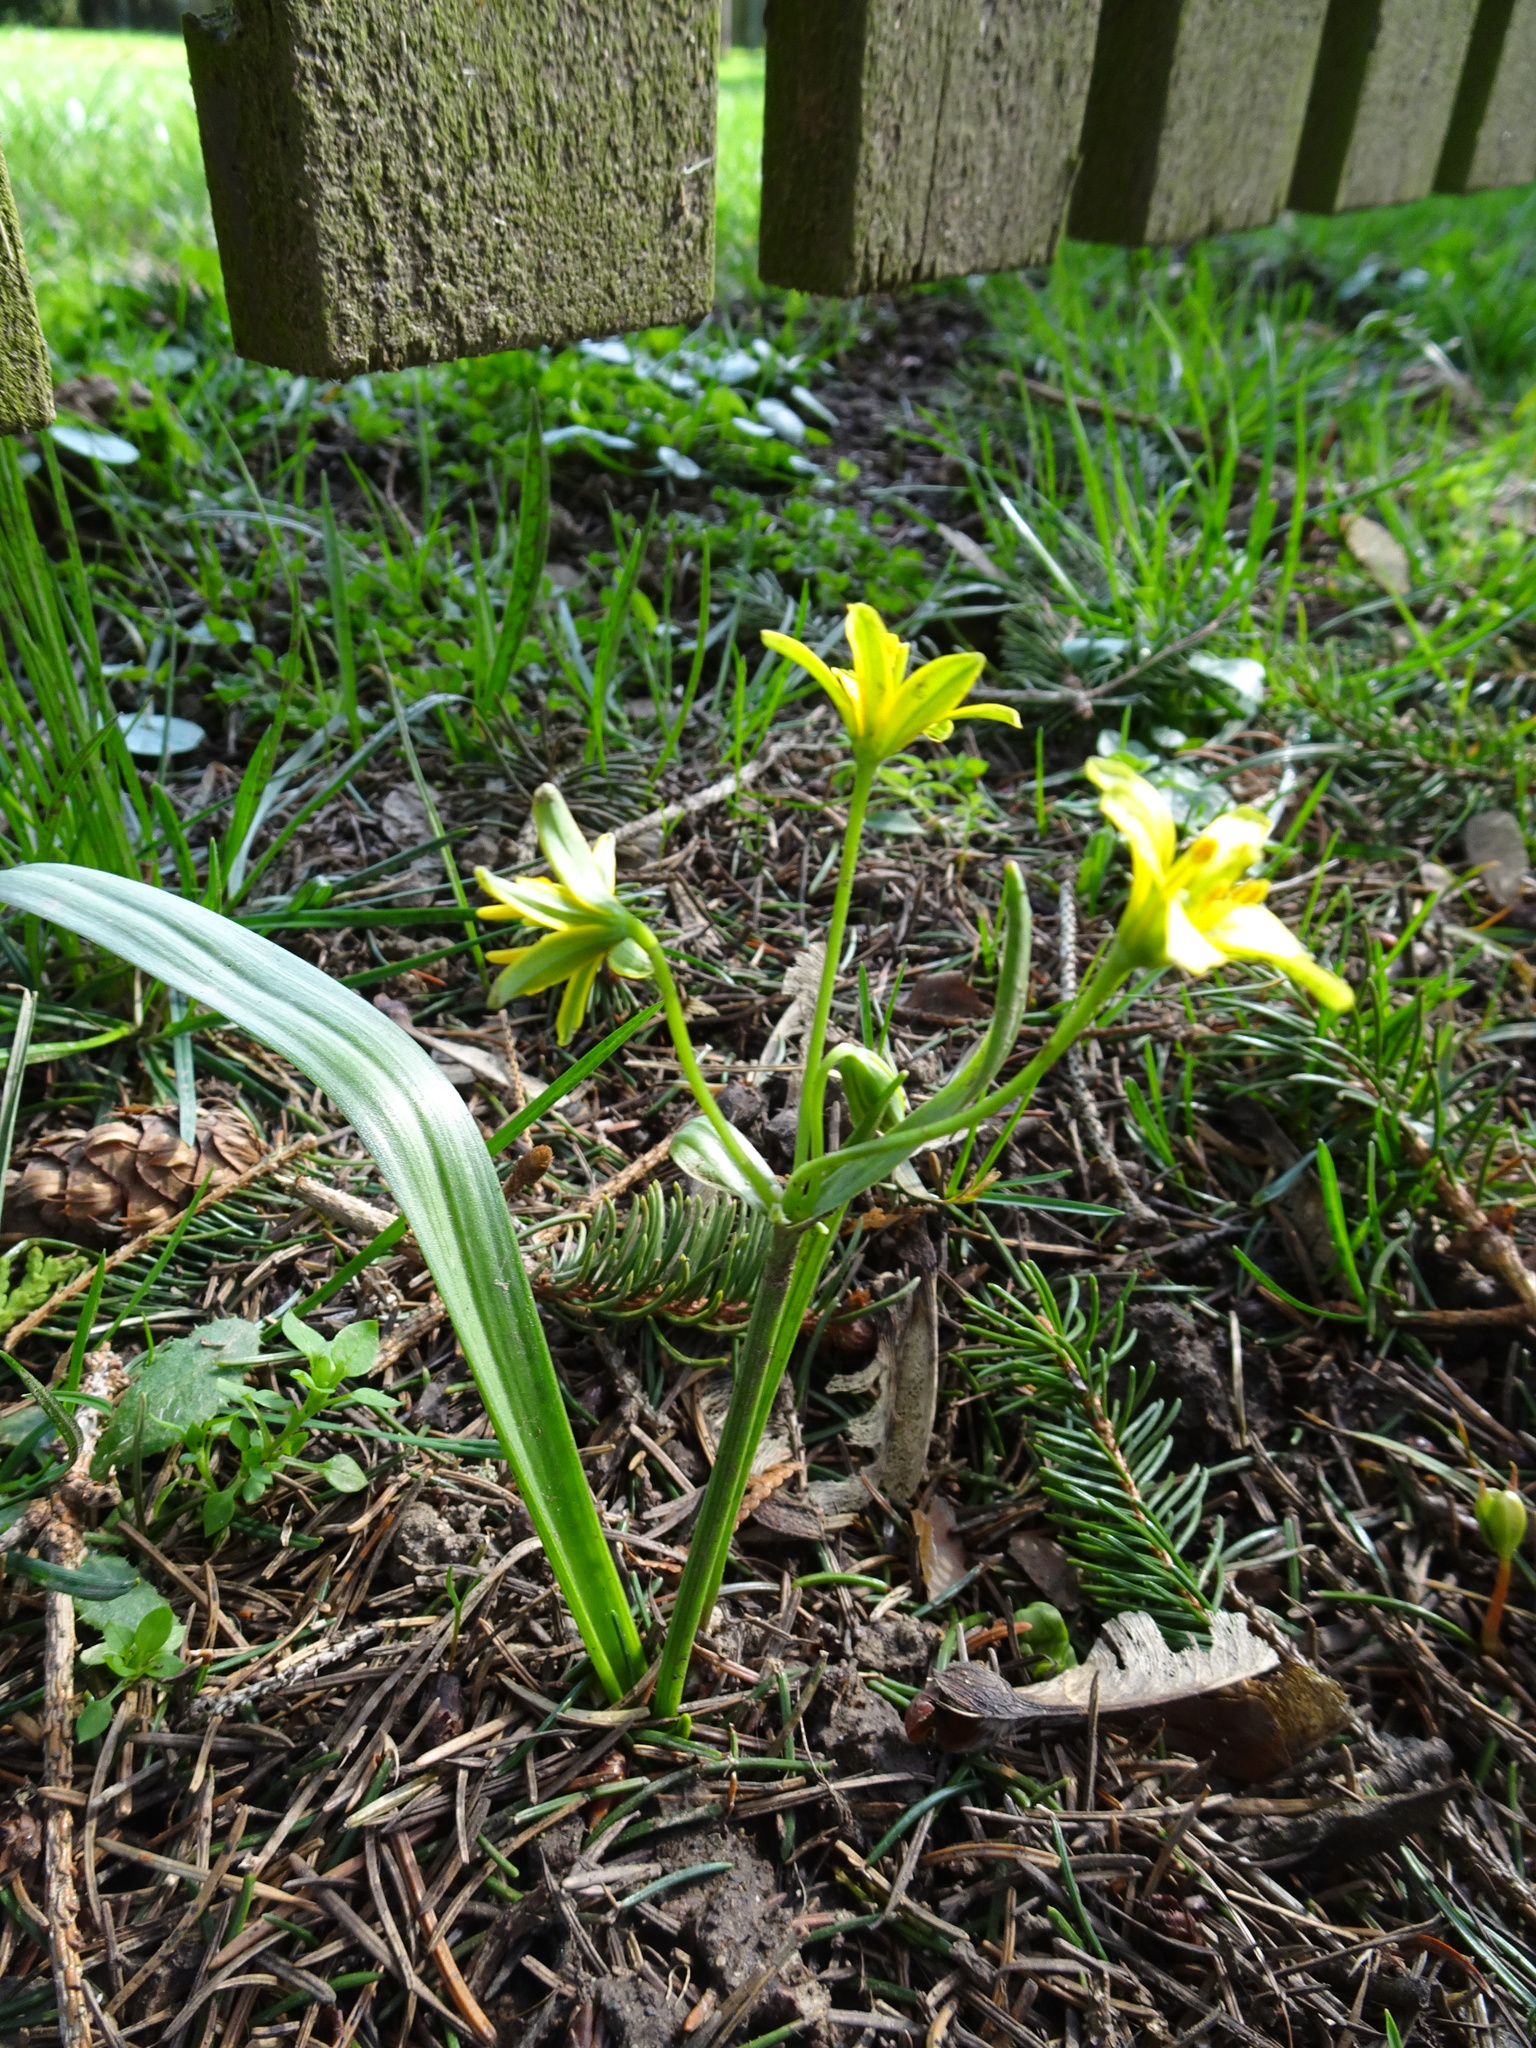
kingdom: Plantae
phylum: Tracheophyta
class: Liliopsida
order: Liliales
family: Liliaceae
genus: Gagea
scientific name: Gagea lutea
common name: Yellow star-of-bethlehem
